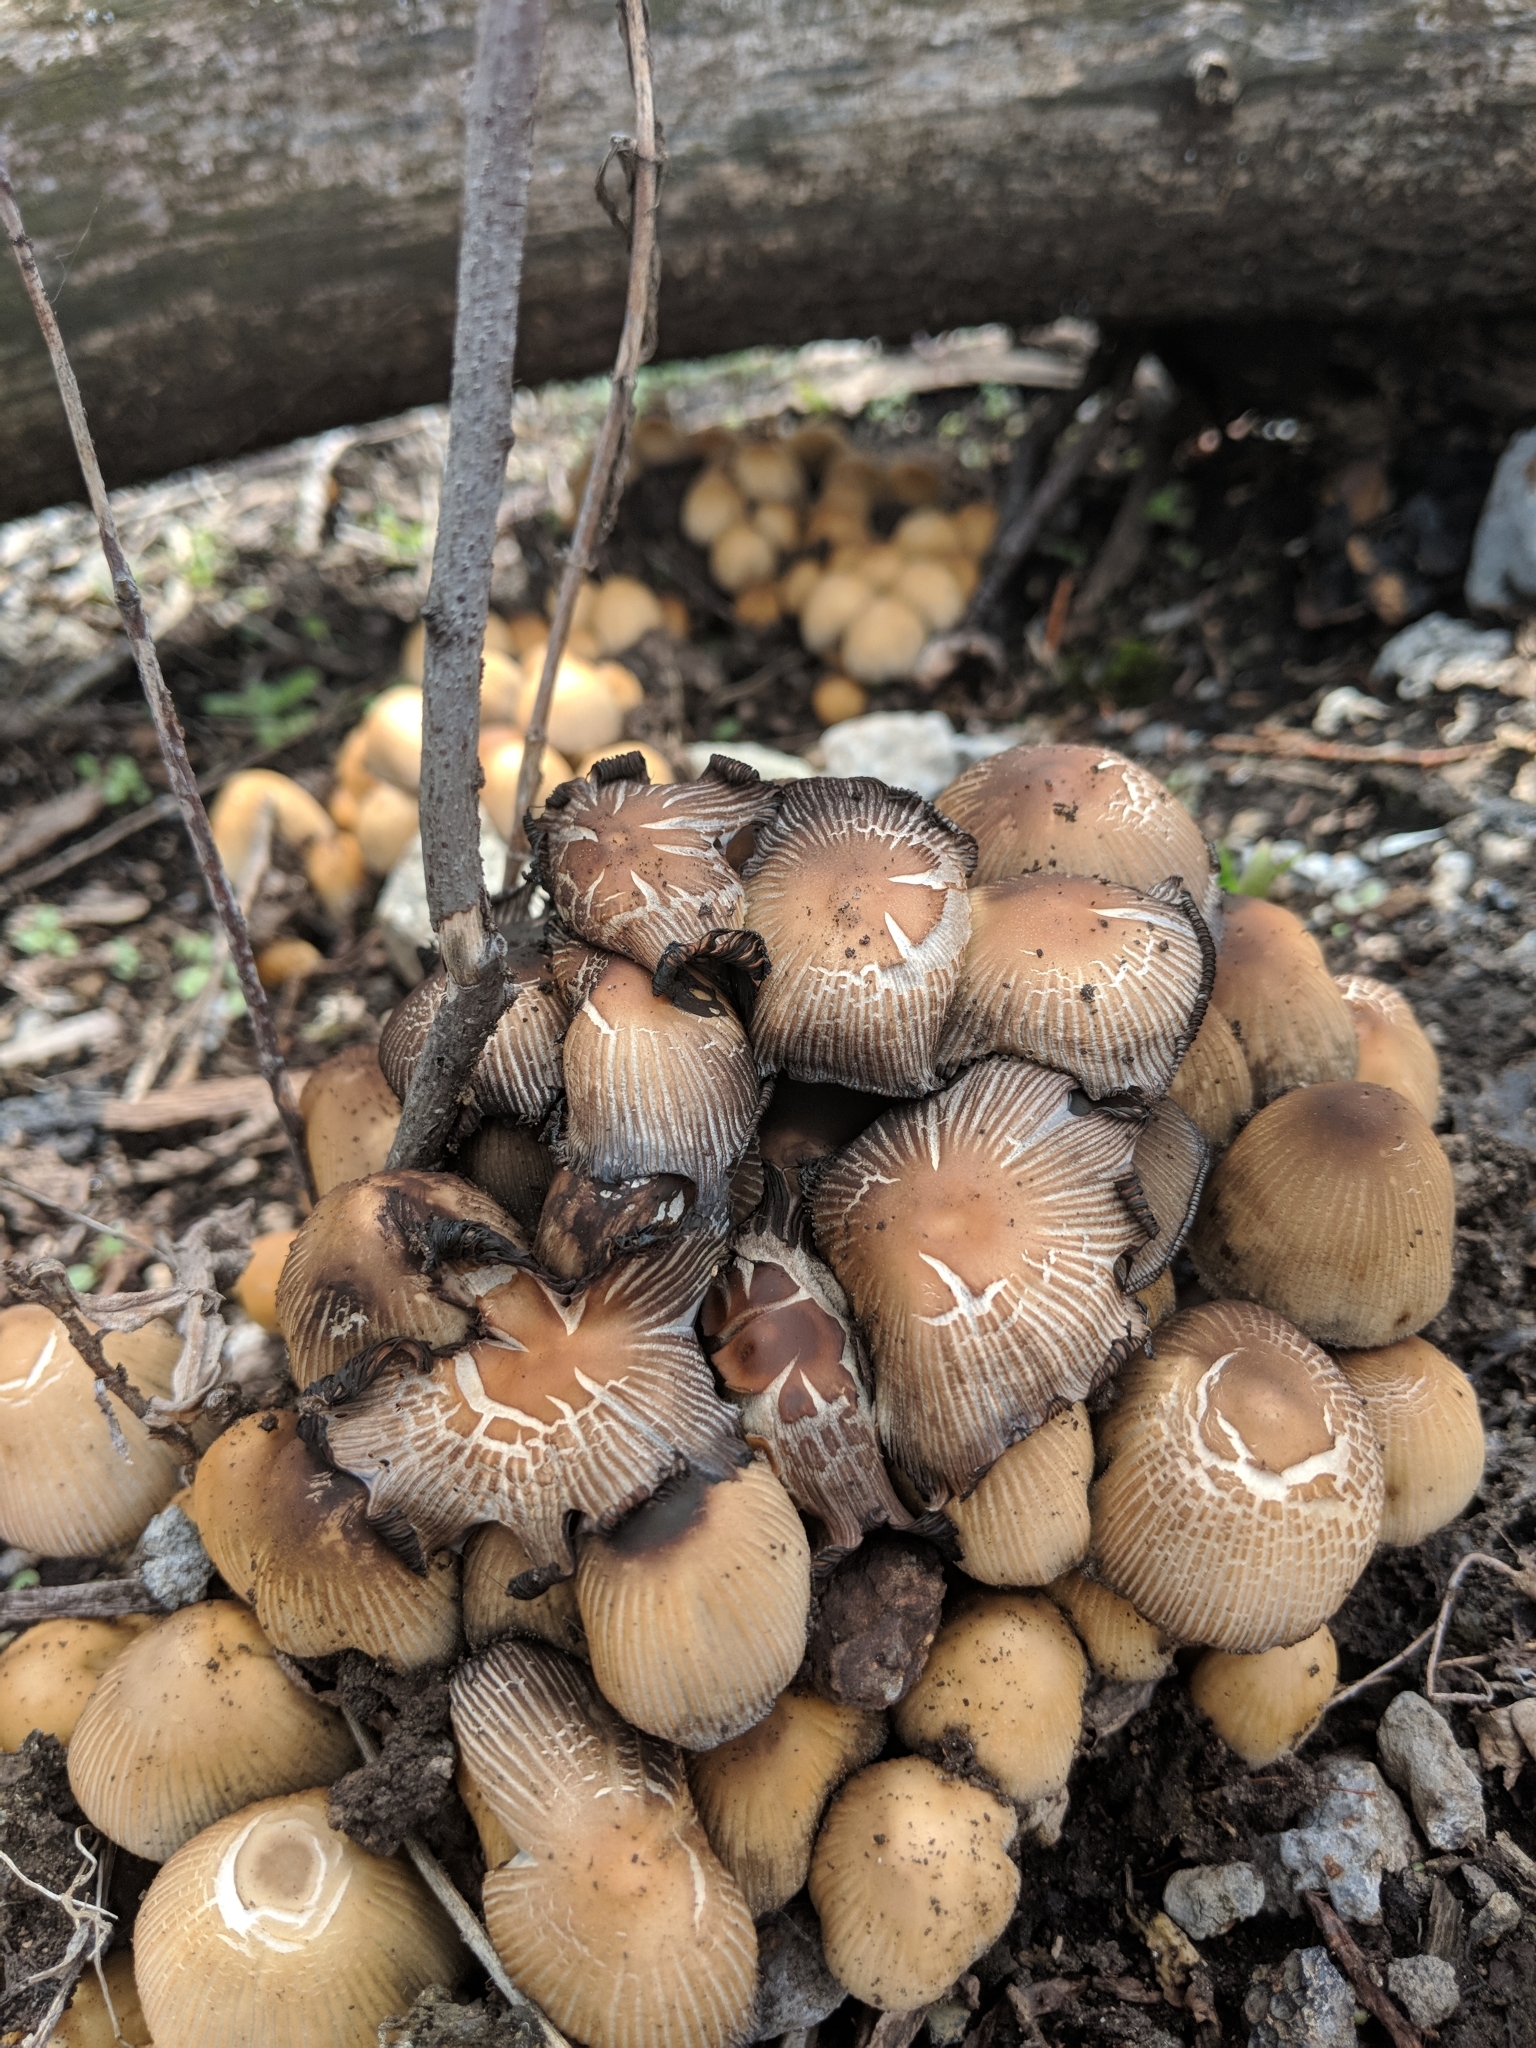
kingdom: Fungi
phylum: Basidiomycota
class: Agaricomycetes
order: Agaricales
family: Psathyrellaceae
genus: Coprinellus
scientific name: Coprinellus micaceus
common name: Glistening ink-cap
